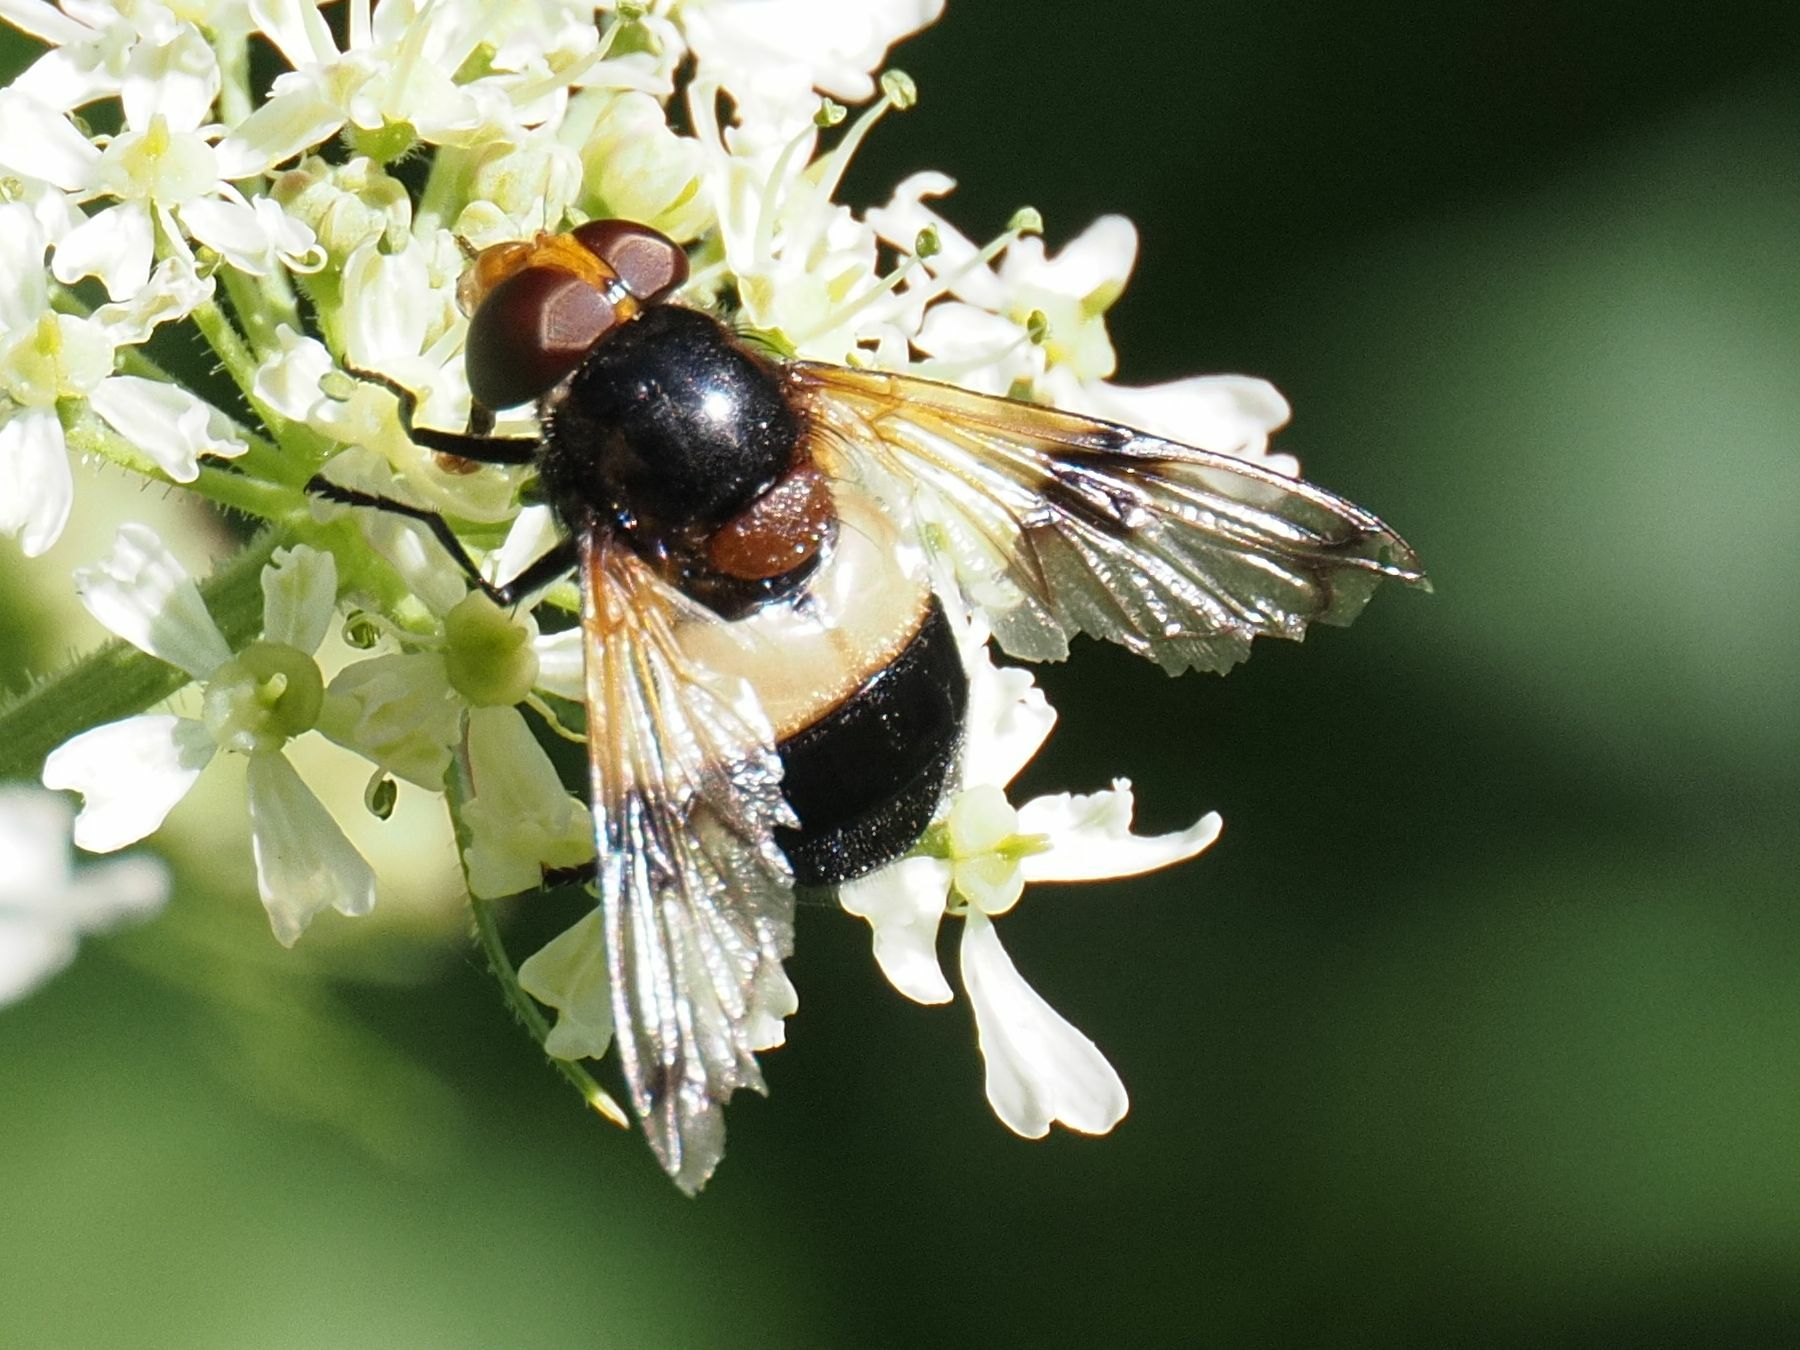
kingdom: Animalia
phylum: Arthropoda
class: Insecta
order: Diptera
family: Syrphidae
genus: Volucella
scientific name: Volucella pellucens
